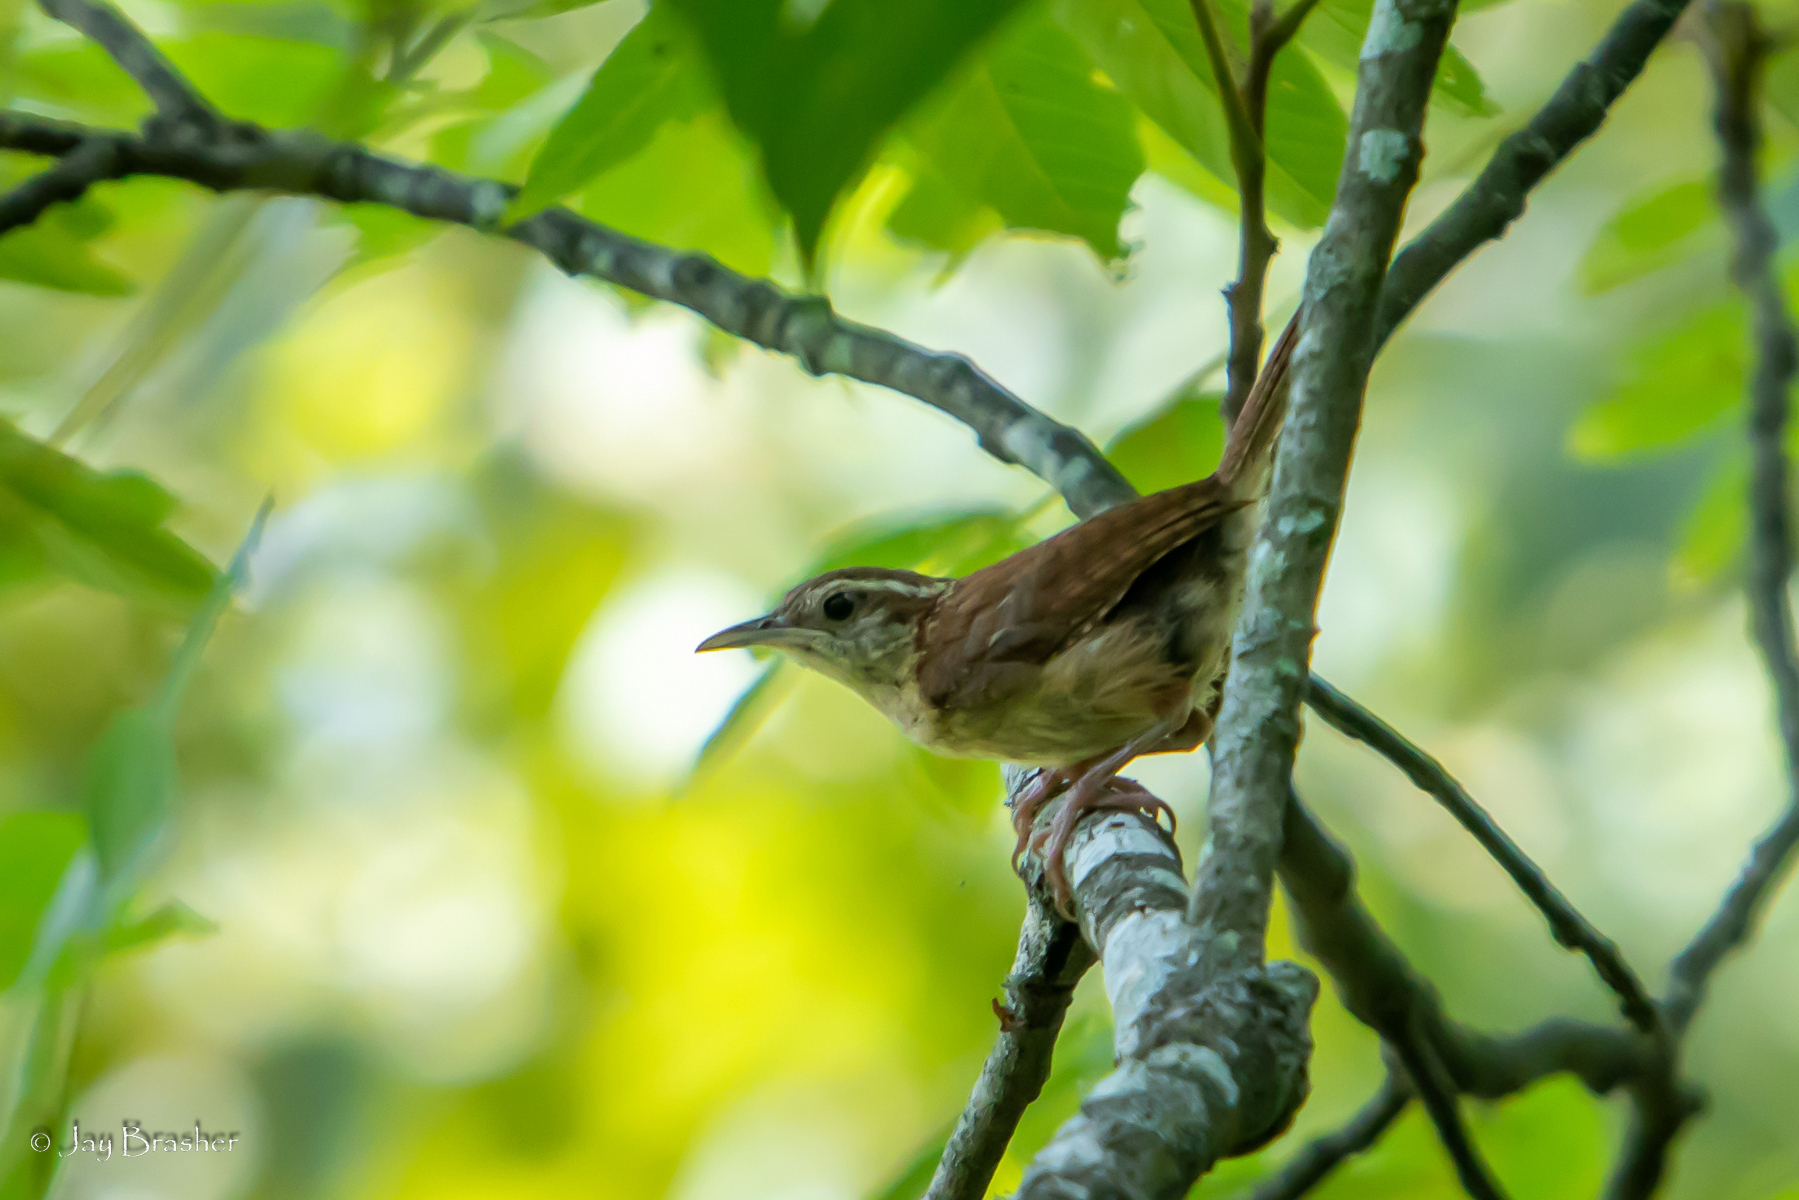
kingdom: Animalia
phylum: Chordata
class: Aves
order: Passeriformes
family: Troglodytidae
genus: Thryothorus
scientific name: Thryothorus ludovicianus
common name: Carolina wren
